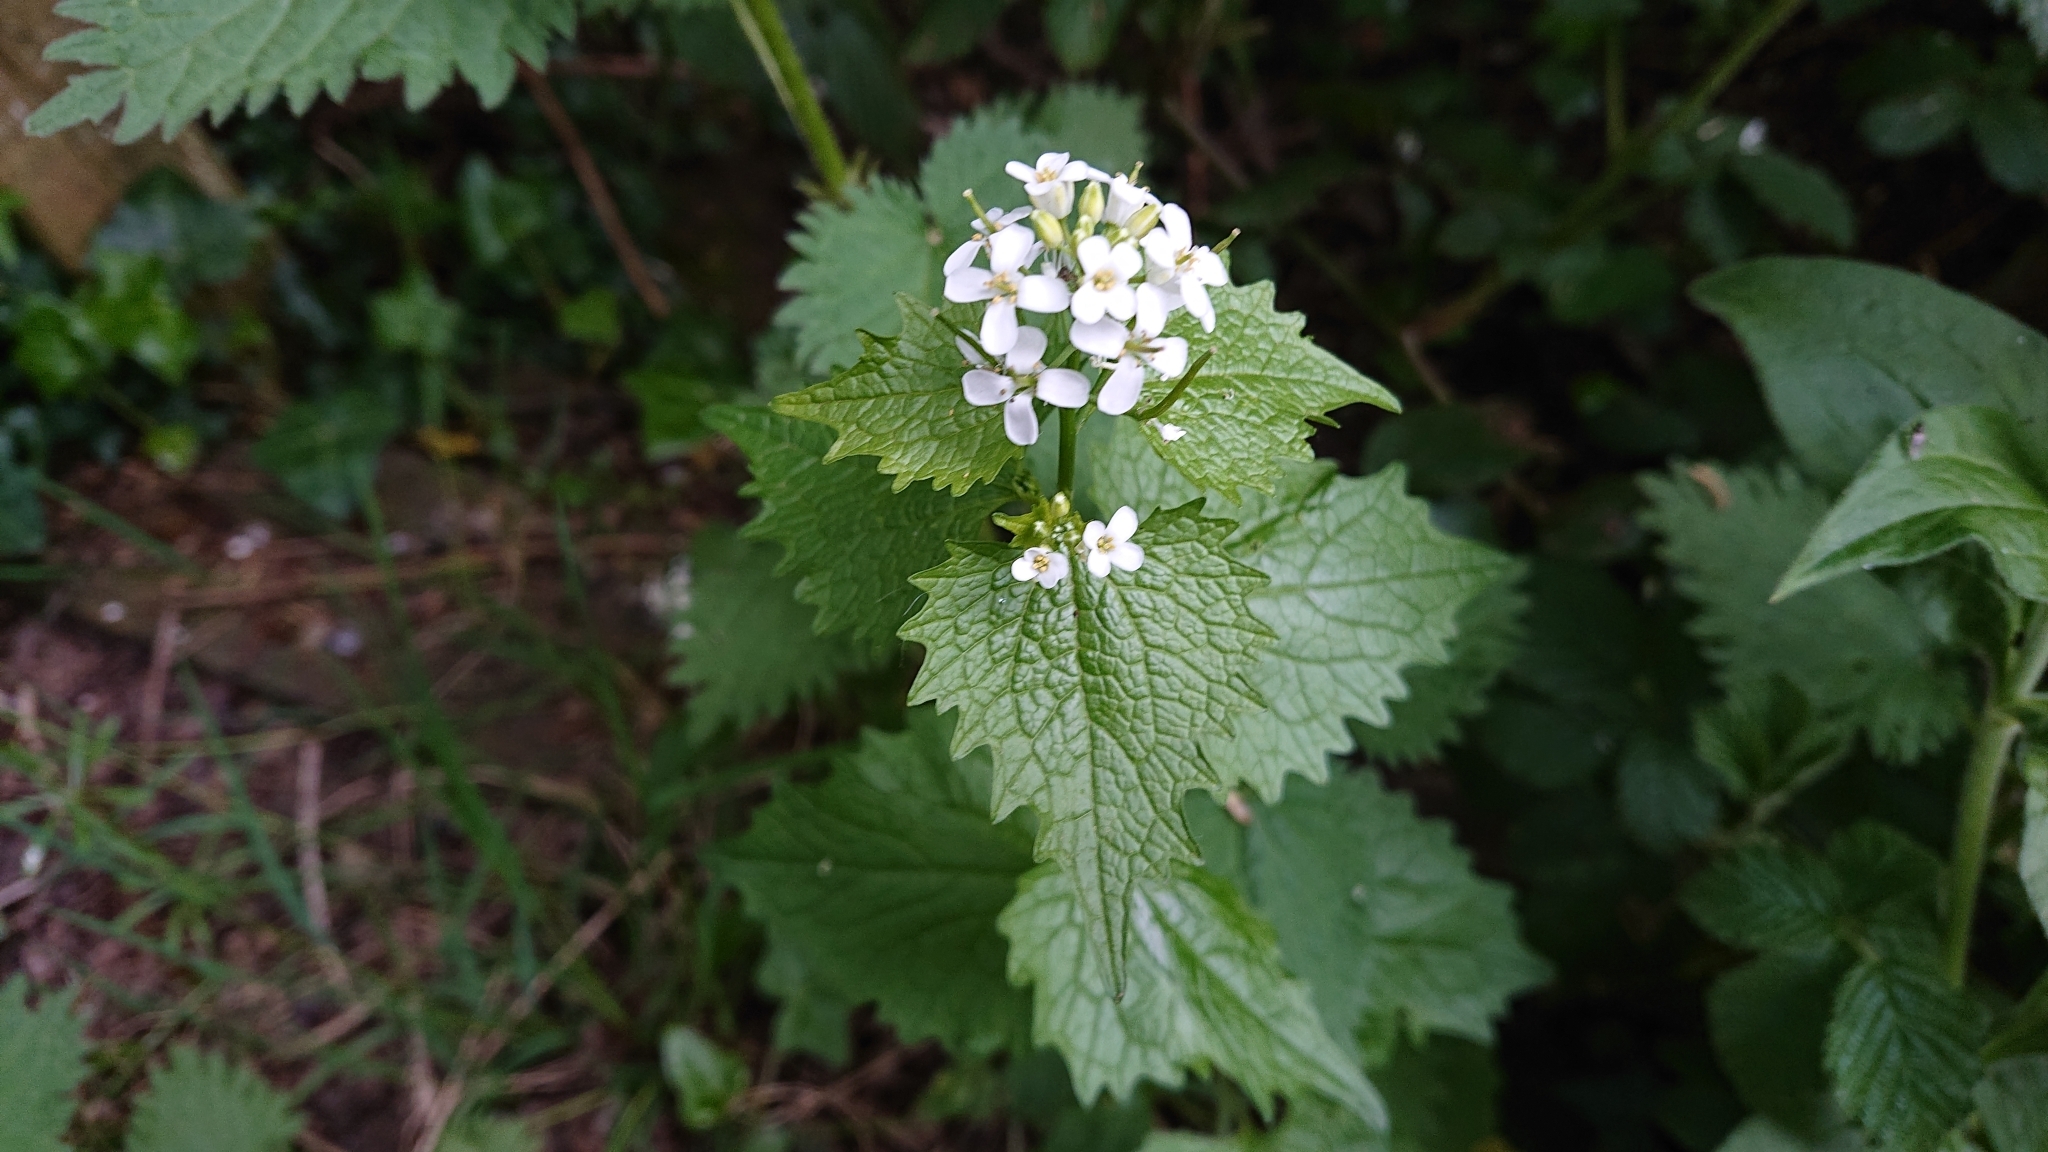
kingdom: Plantae
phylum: Tracheophyta
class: Magnoliopsida
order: Brassicales
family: Brassicaceae
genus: Alliaria
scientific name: Alliaria petiolata
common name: Garlic mustard
